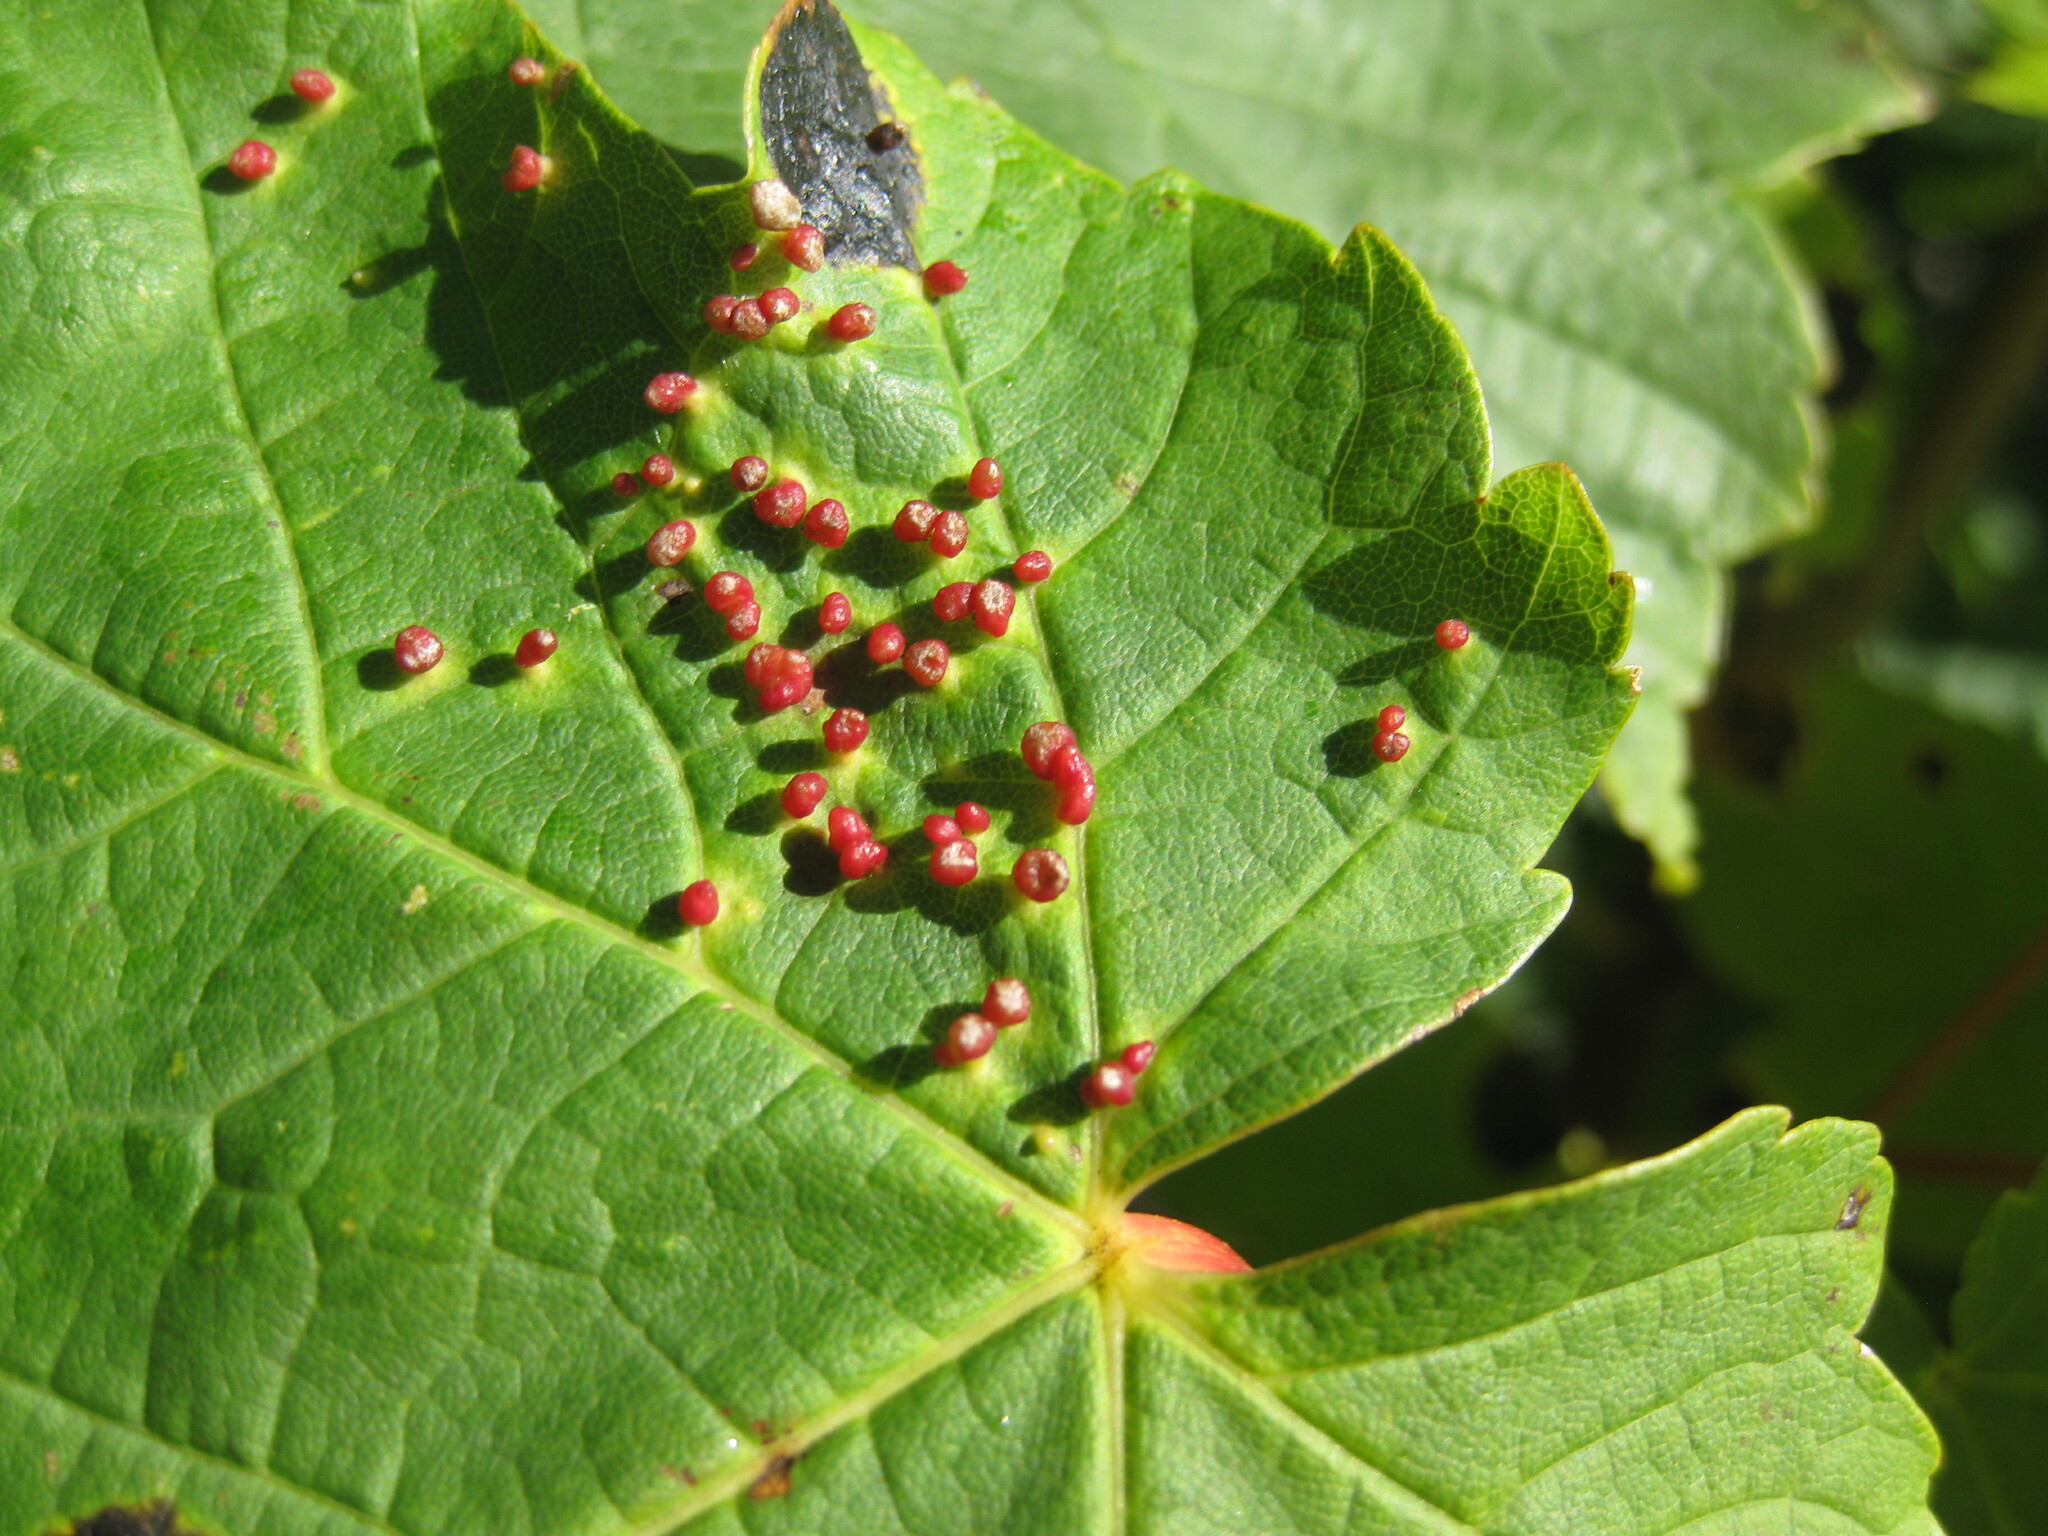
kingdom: Animalia
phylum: Arthropoda
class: Arachnida
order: Trombidiformes
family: Eriophyidae
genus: Aceria
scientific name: Aceria cephaloneus
